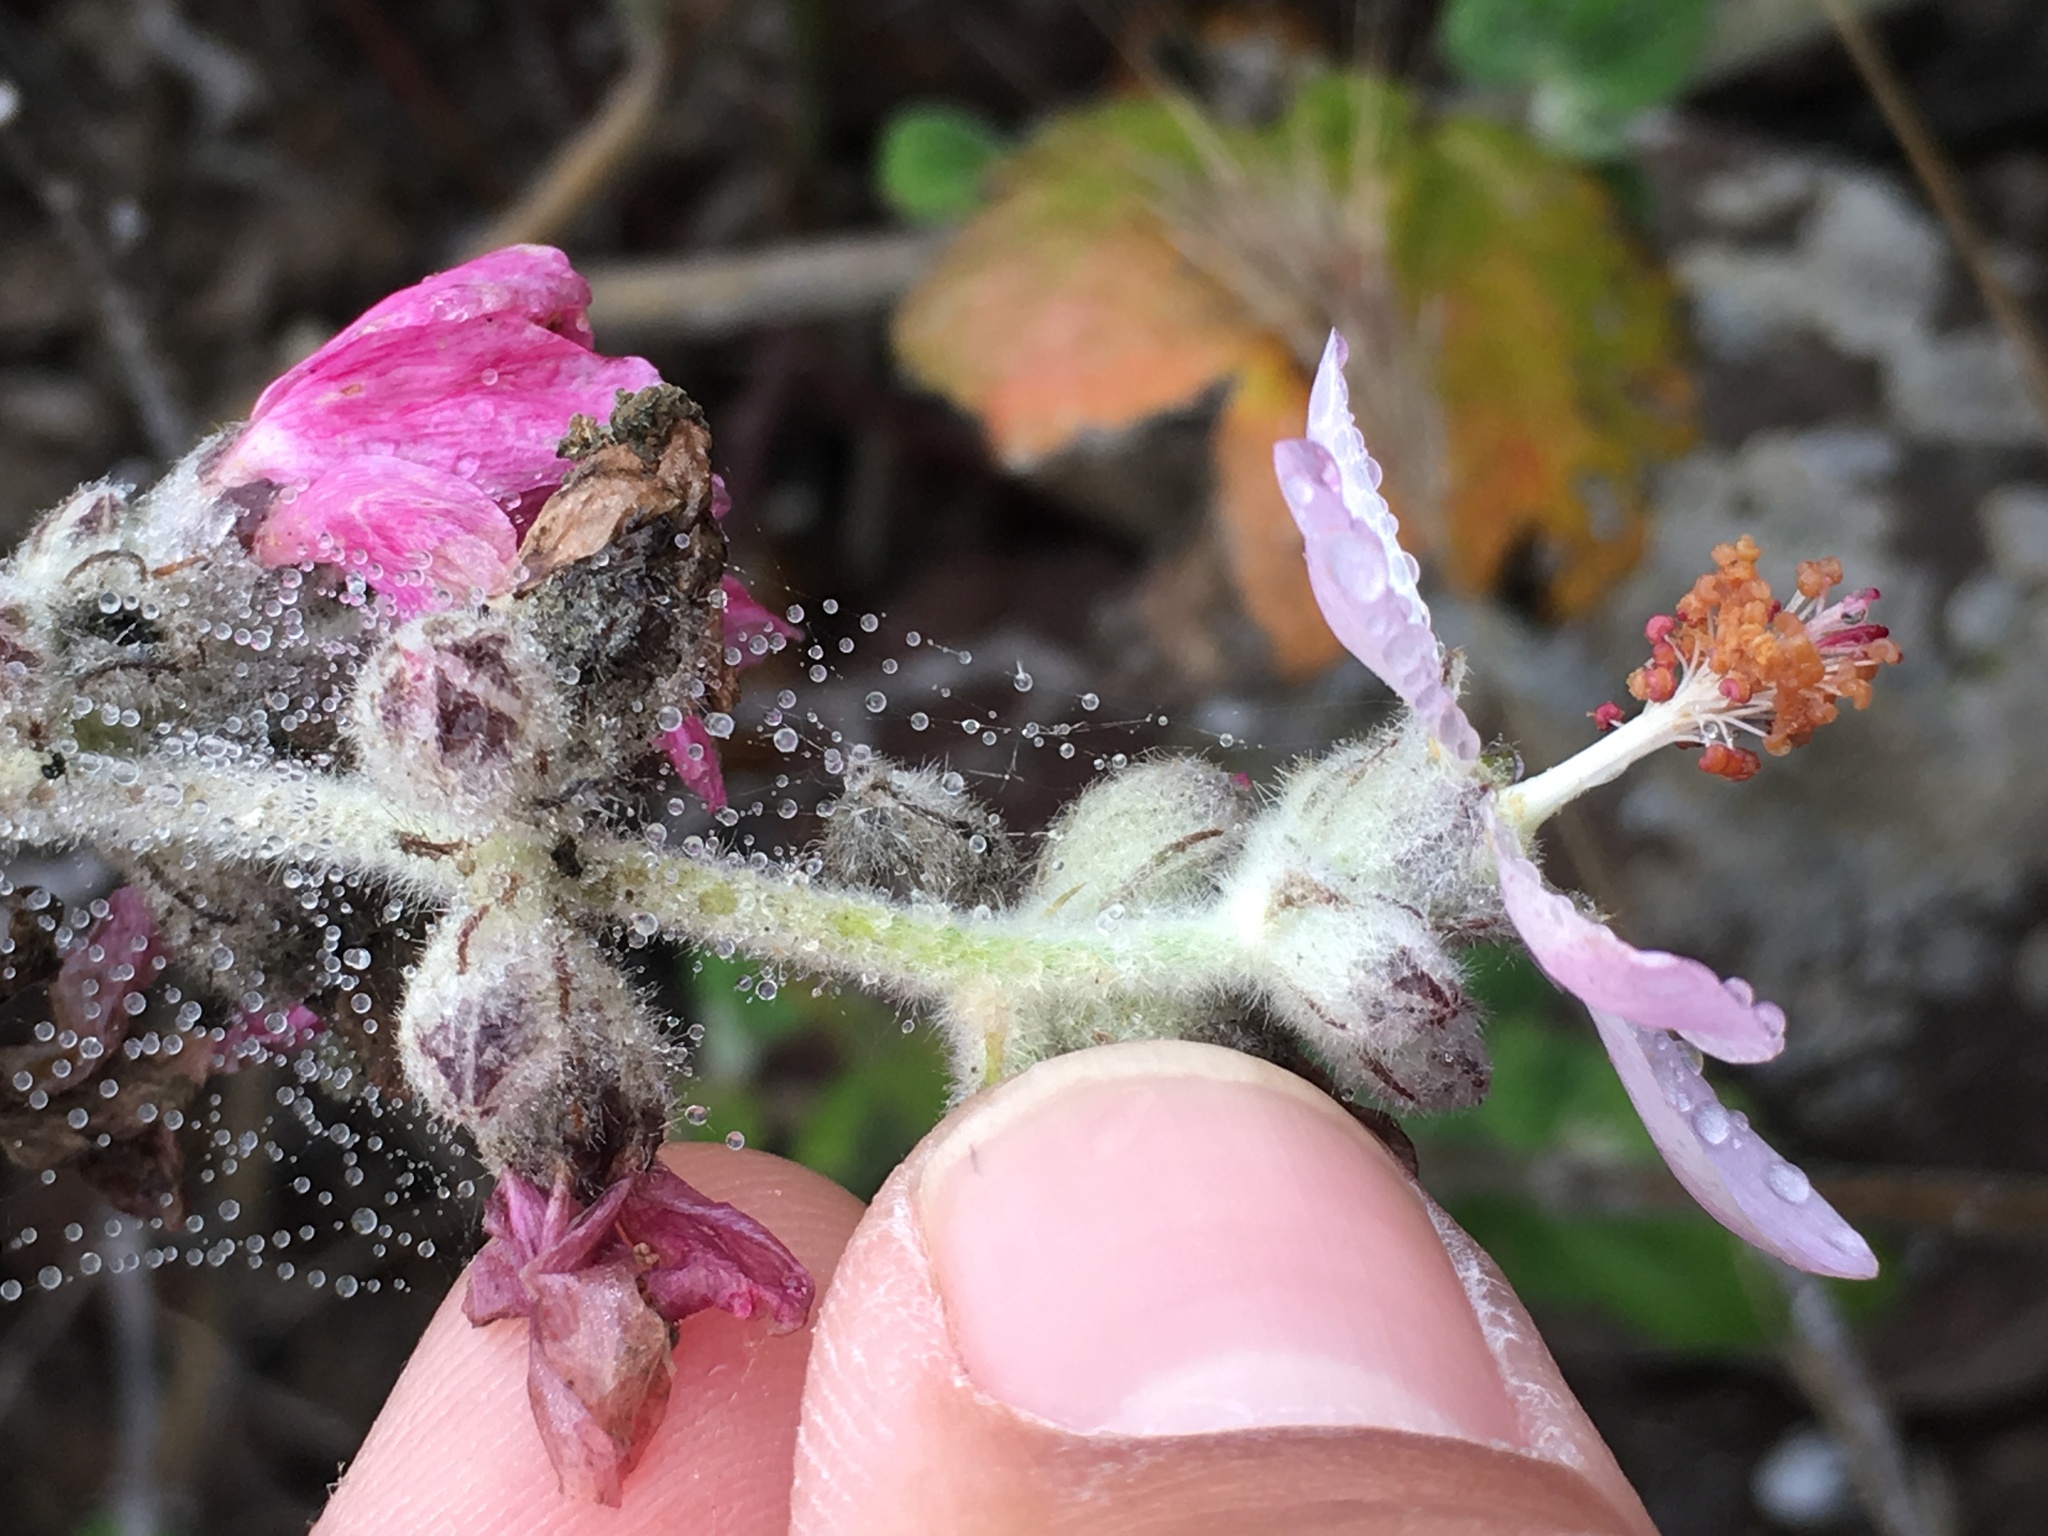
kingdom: Plantae
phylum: Tracheophyta
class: Magnoliopsida
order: Malvales
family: Malvaceae
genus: Malacothamnus
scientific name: Malacothamnus clementinus
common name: San clemente island bush-mallow
